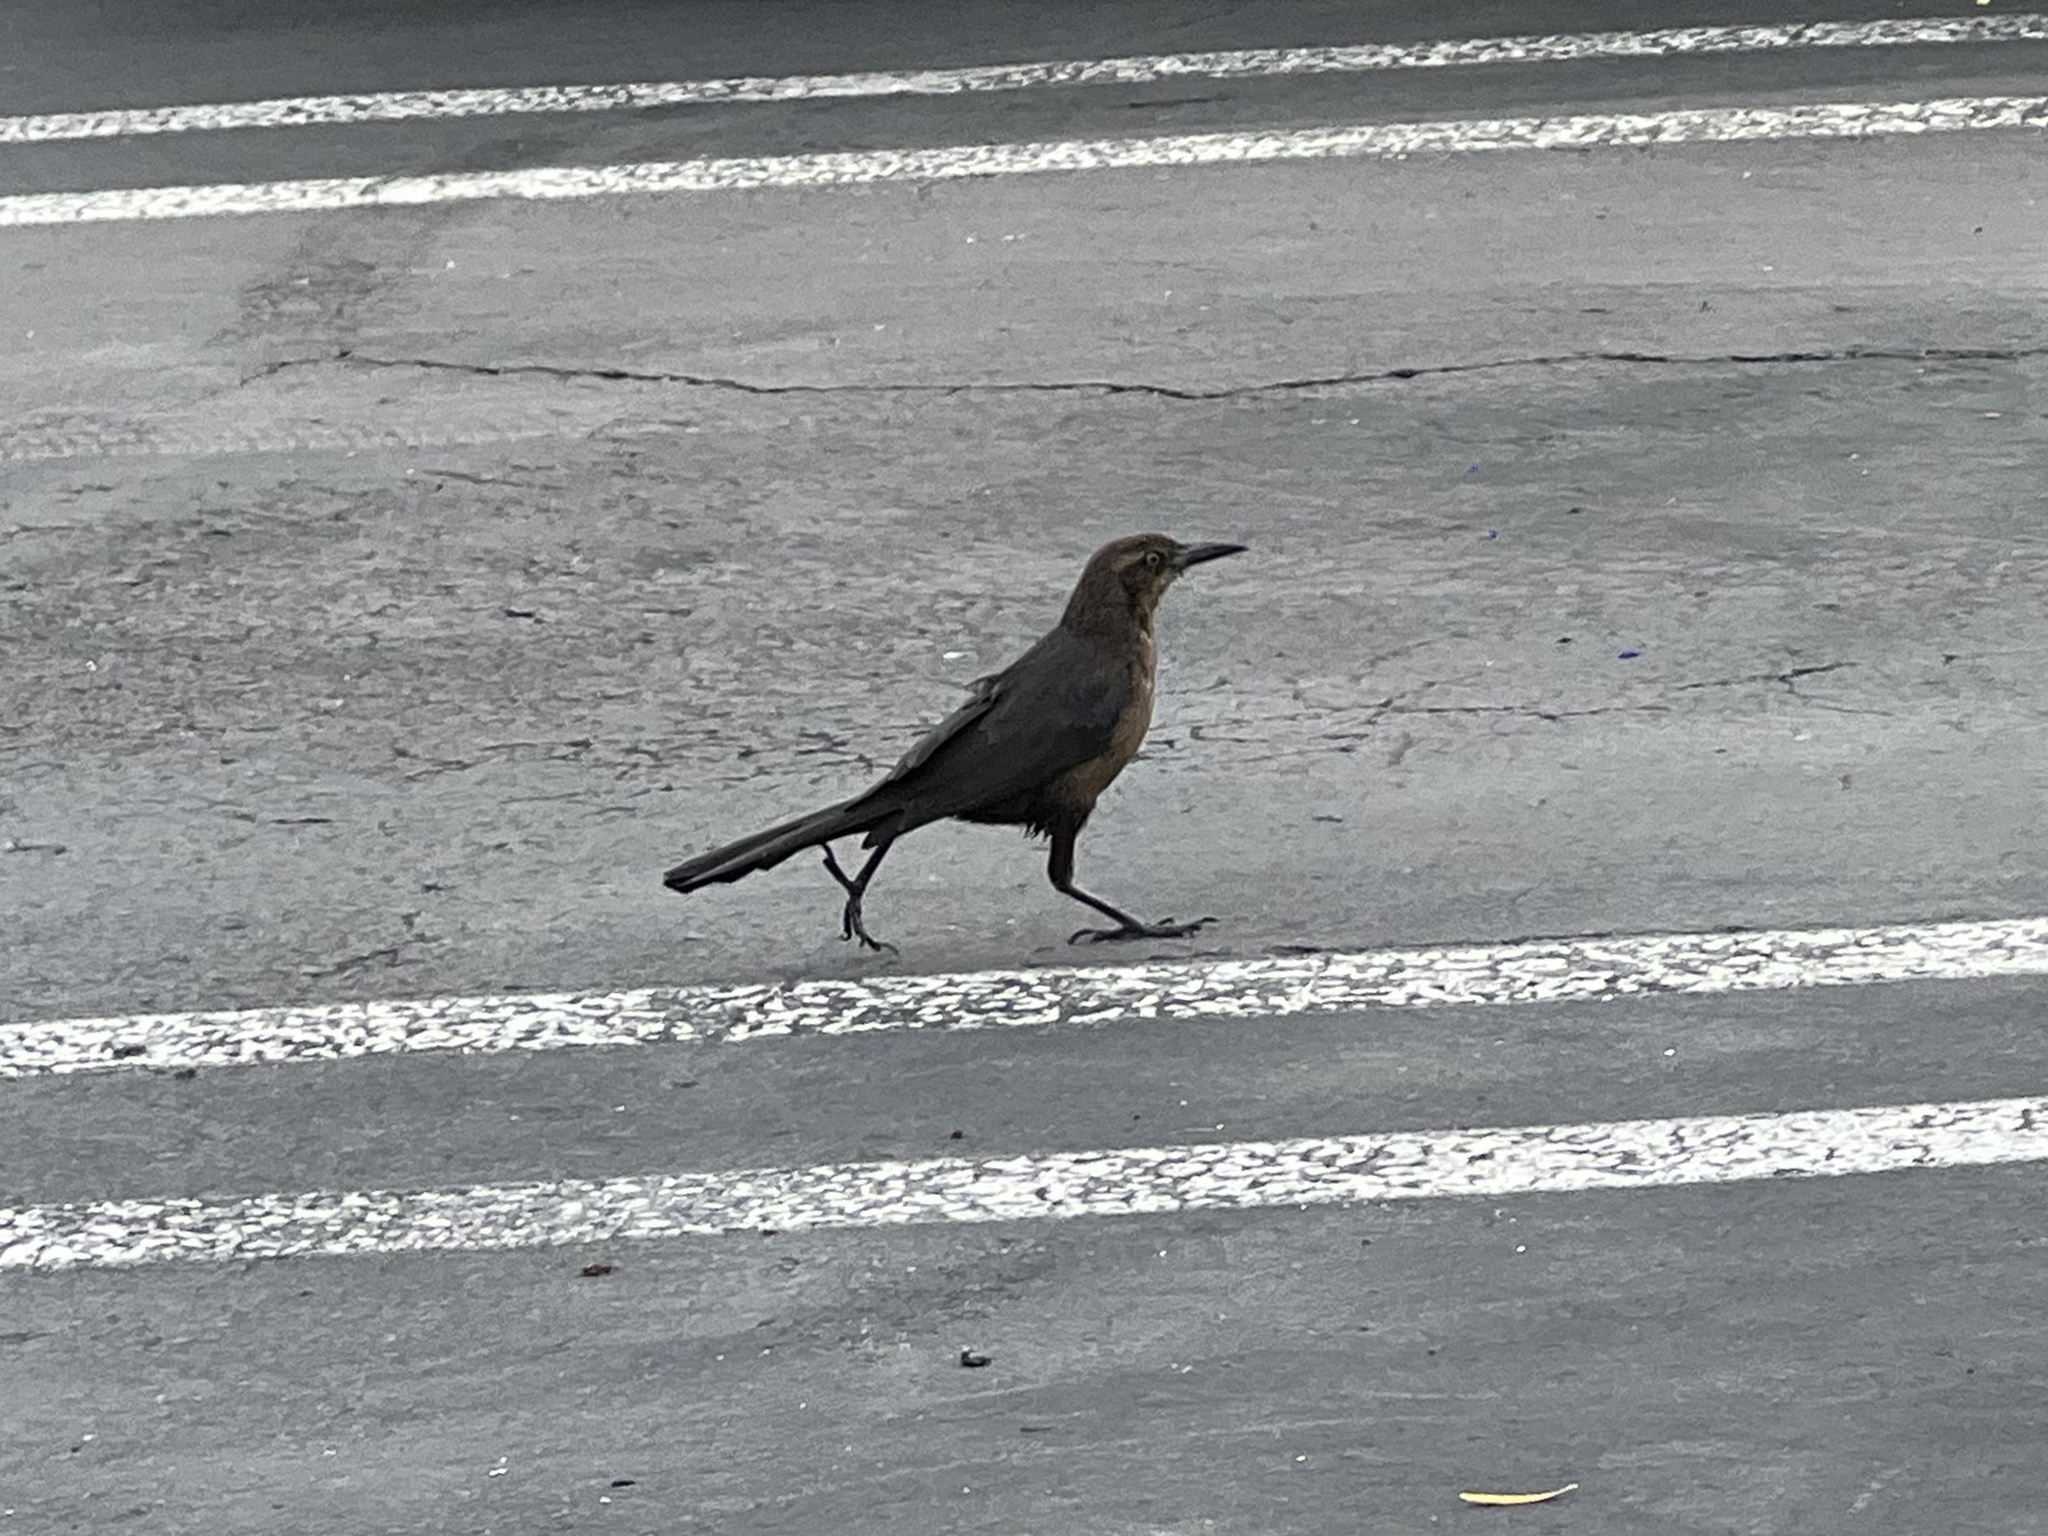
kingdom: Animalia
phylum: Chordata
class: Aves
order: Passeriformes
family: Icteridae
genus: Quiscalus
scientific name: Quiscalus mexicanus
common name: Great-tailed grackle
